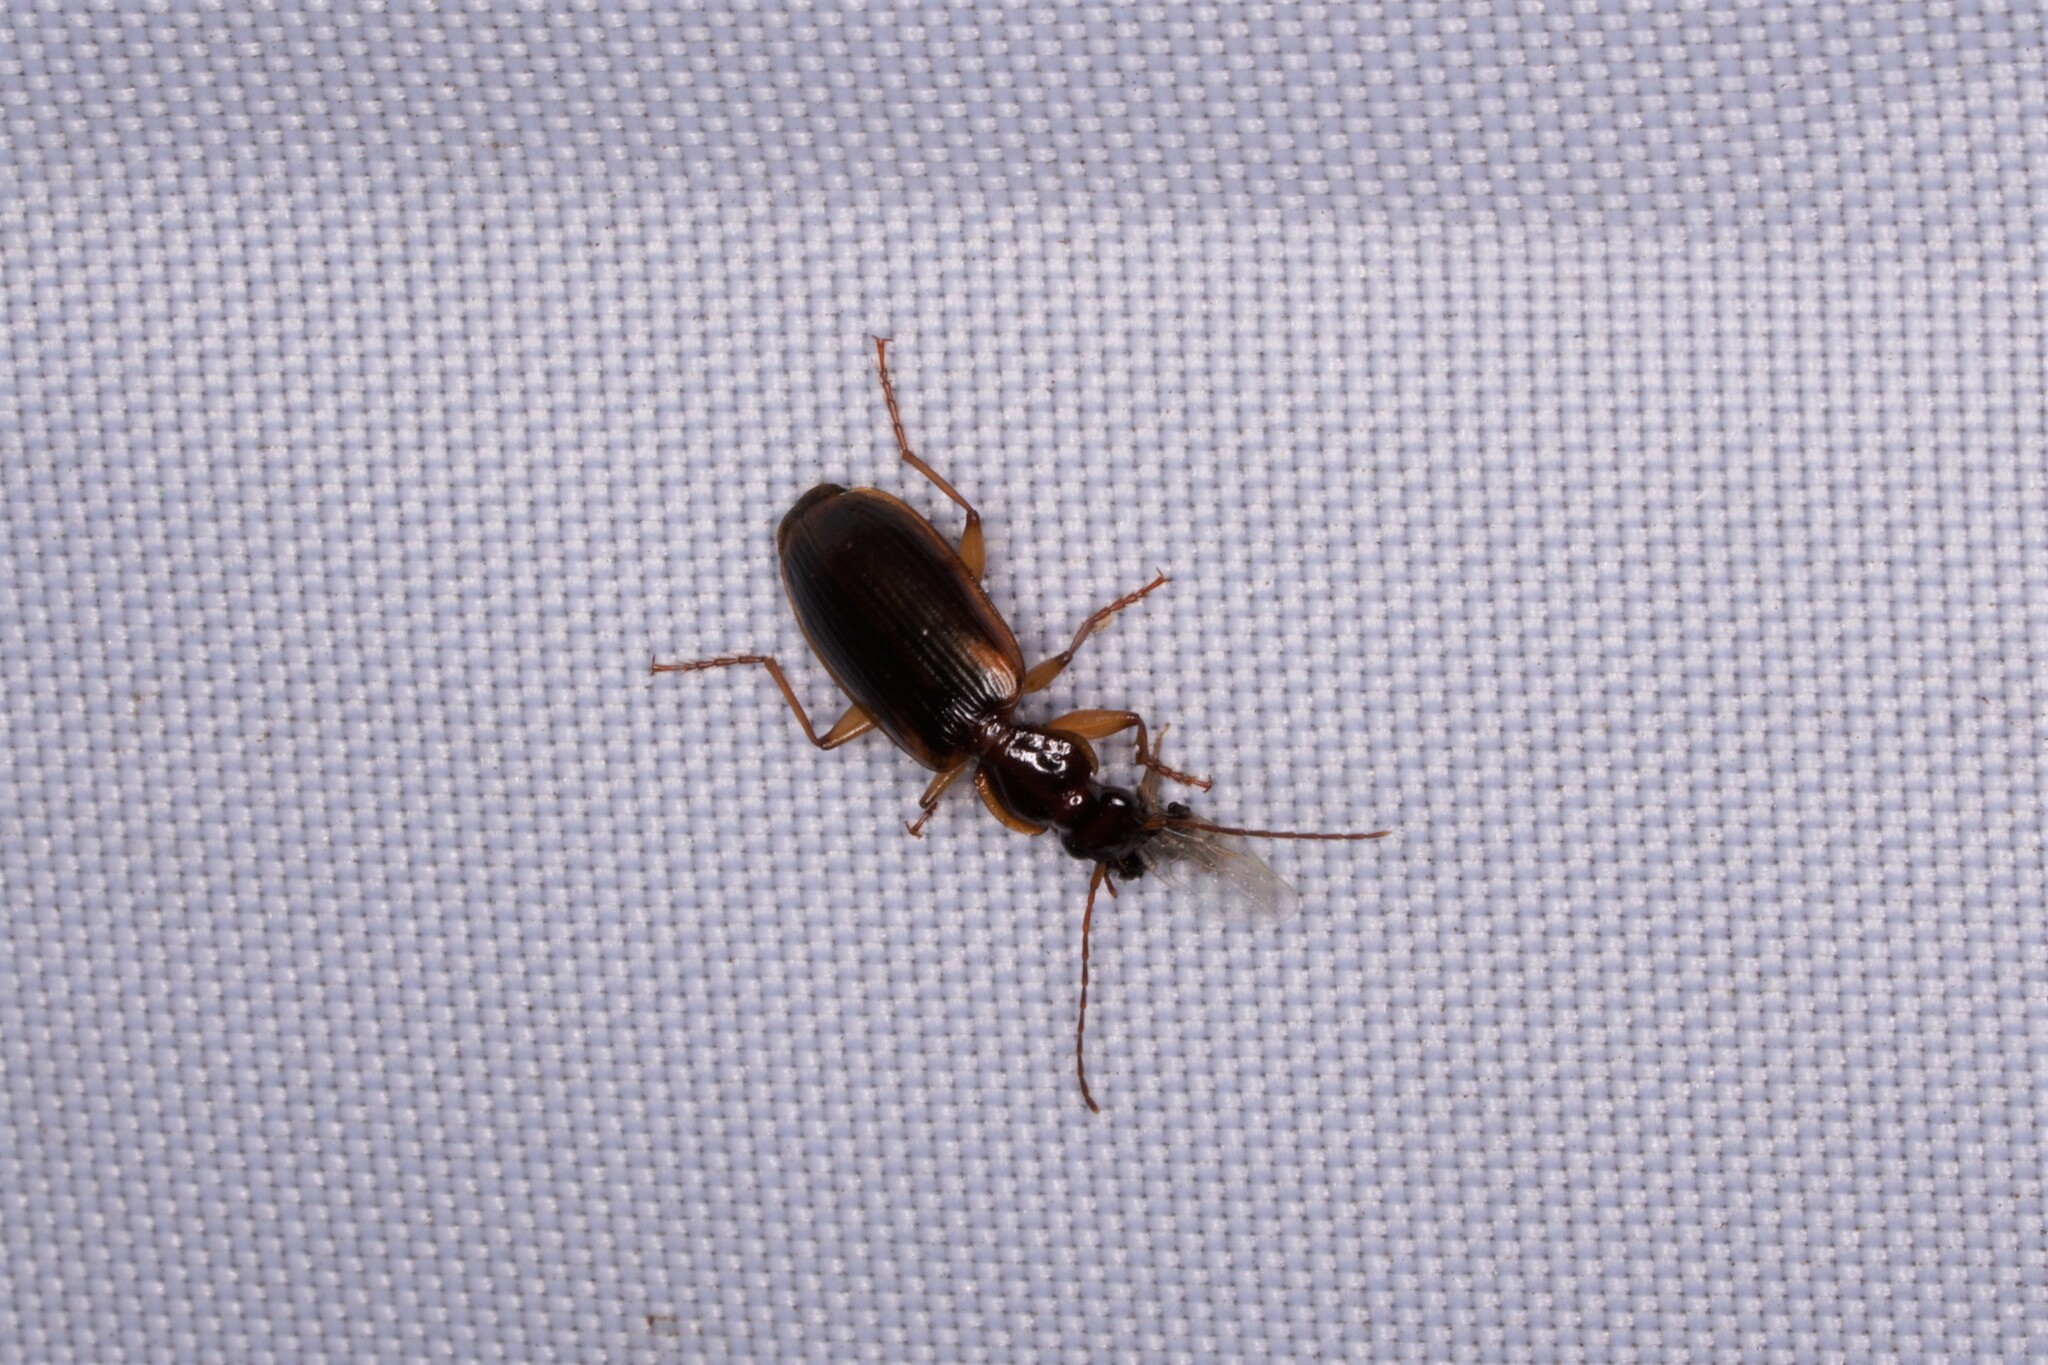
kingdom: Animalia
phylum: Arthropoda
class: Insecta
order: Coleoptera
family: Carabidae
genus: Pinacodera
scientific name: Pinacodera limbata
